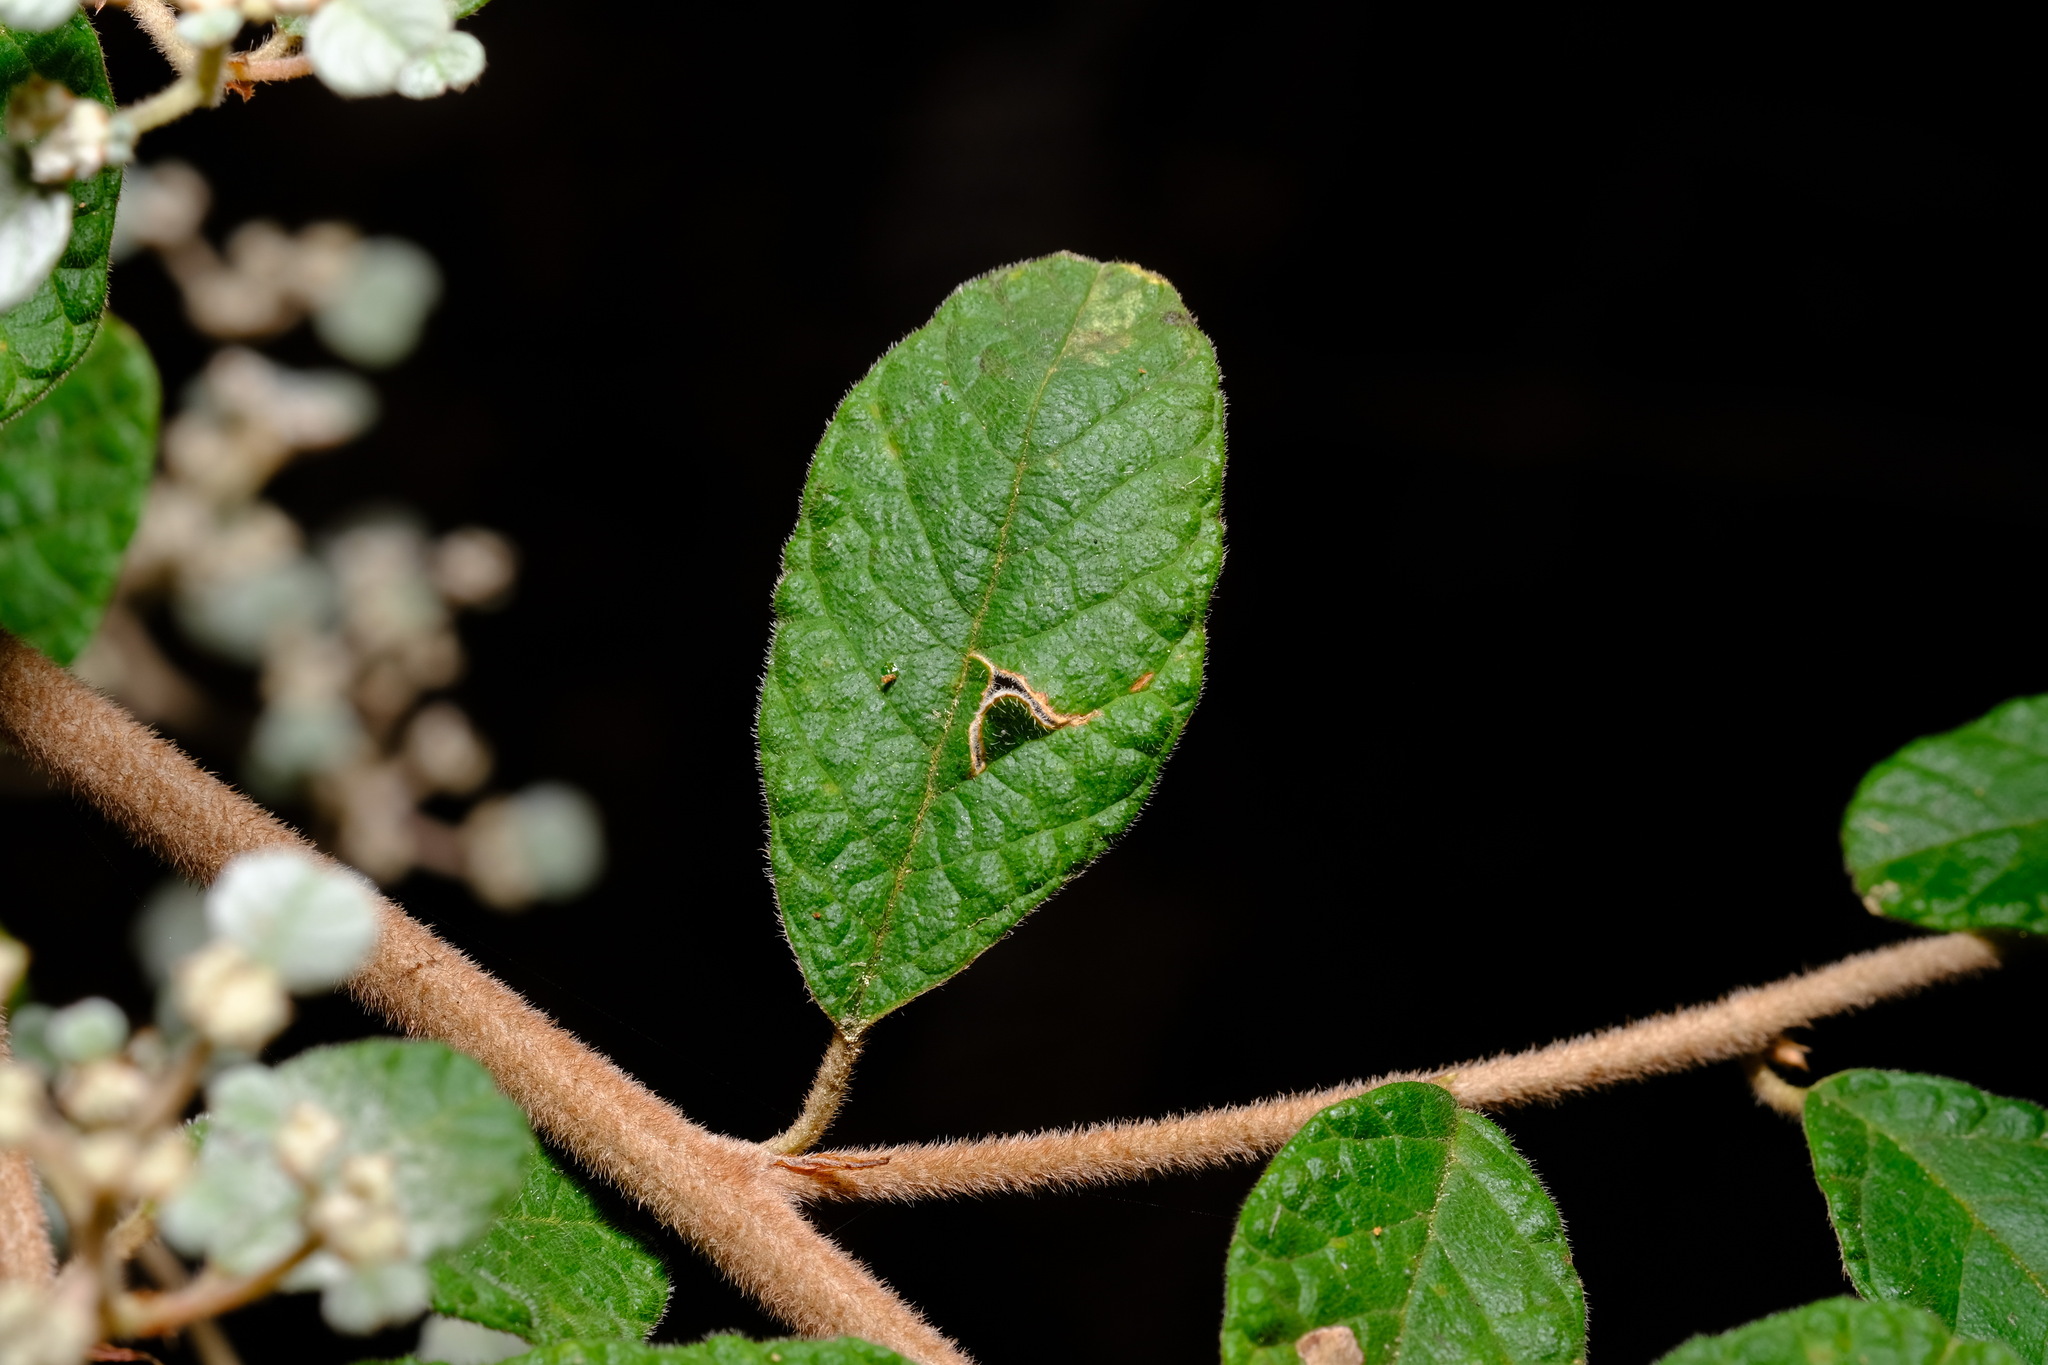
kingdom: Plantae
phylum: Tracheophyta
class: Magnoliopsida
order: Rosales
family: Rhamnaceae
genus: Spyridium
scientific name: Spyridium parvifolium
